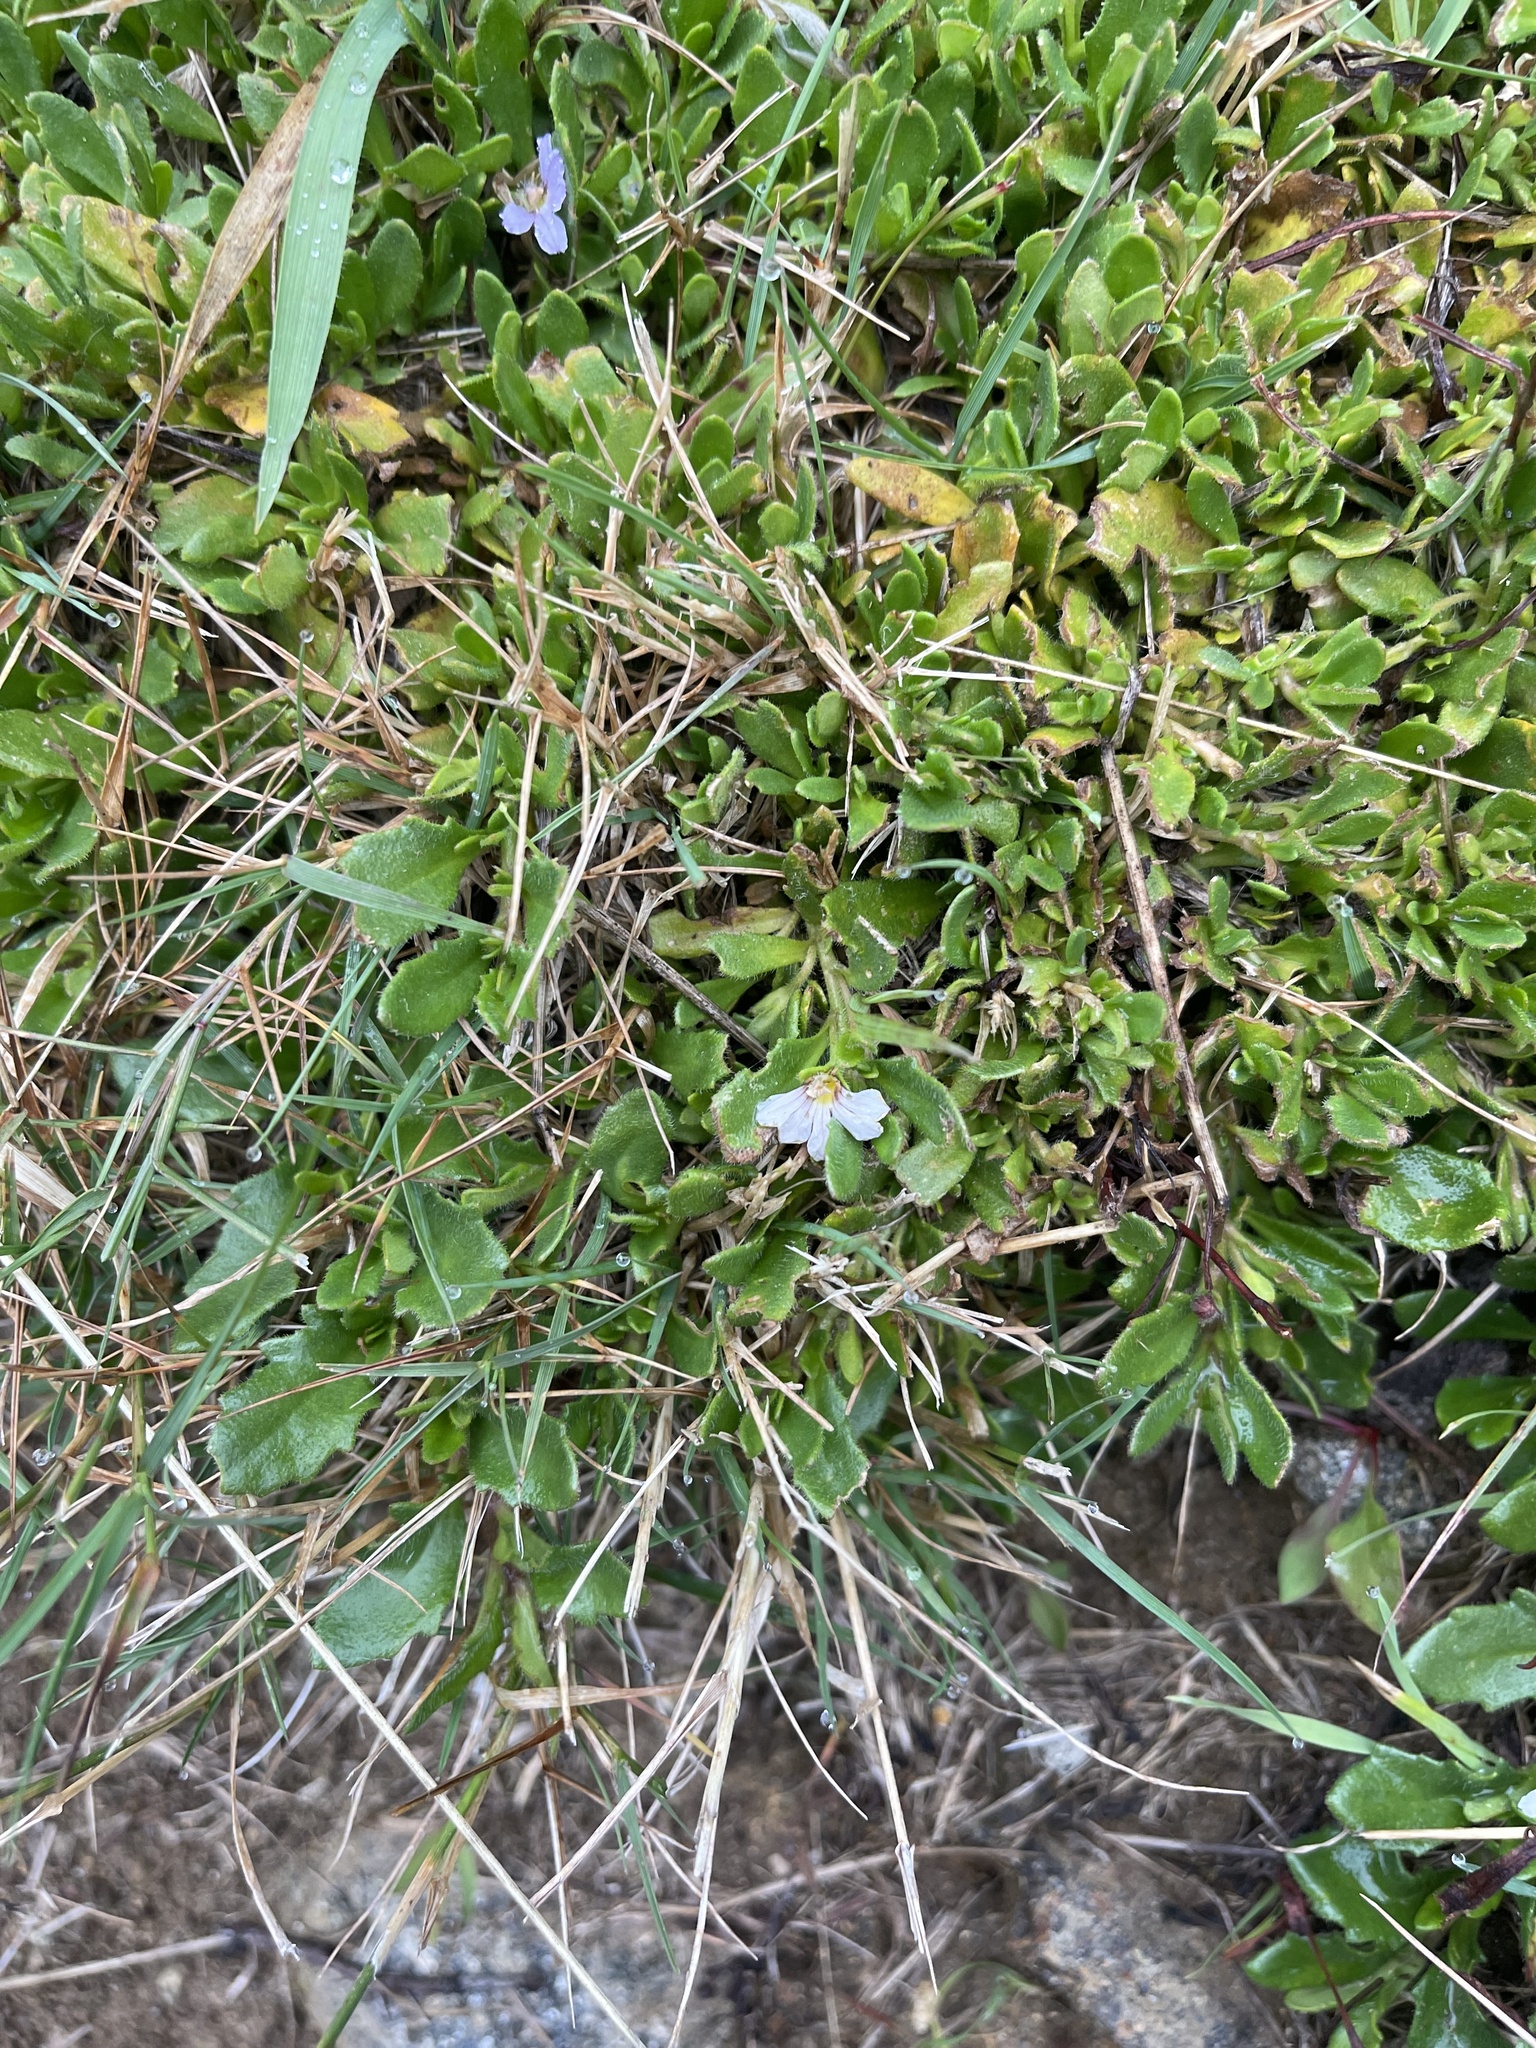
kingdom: Plantae
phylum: Tracheophyta
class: Magnoliopsida
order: Asterales
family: Goodeniaceae
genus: Scaevola
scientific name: Scaevola hookeri
